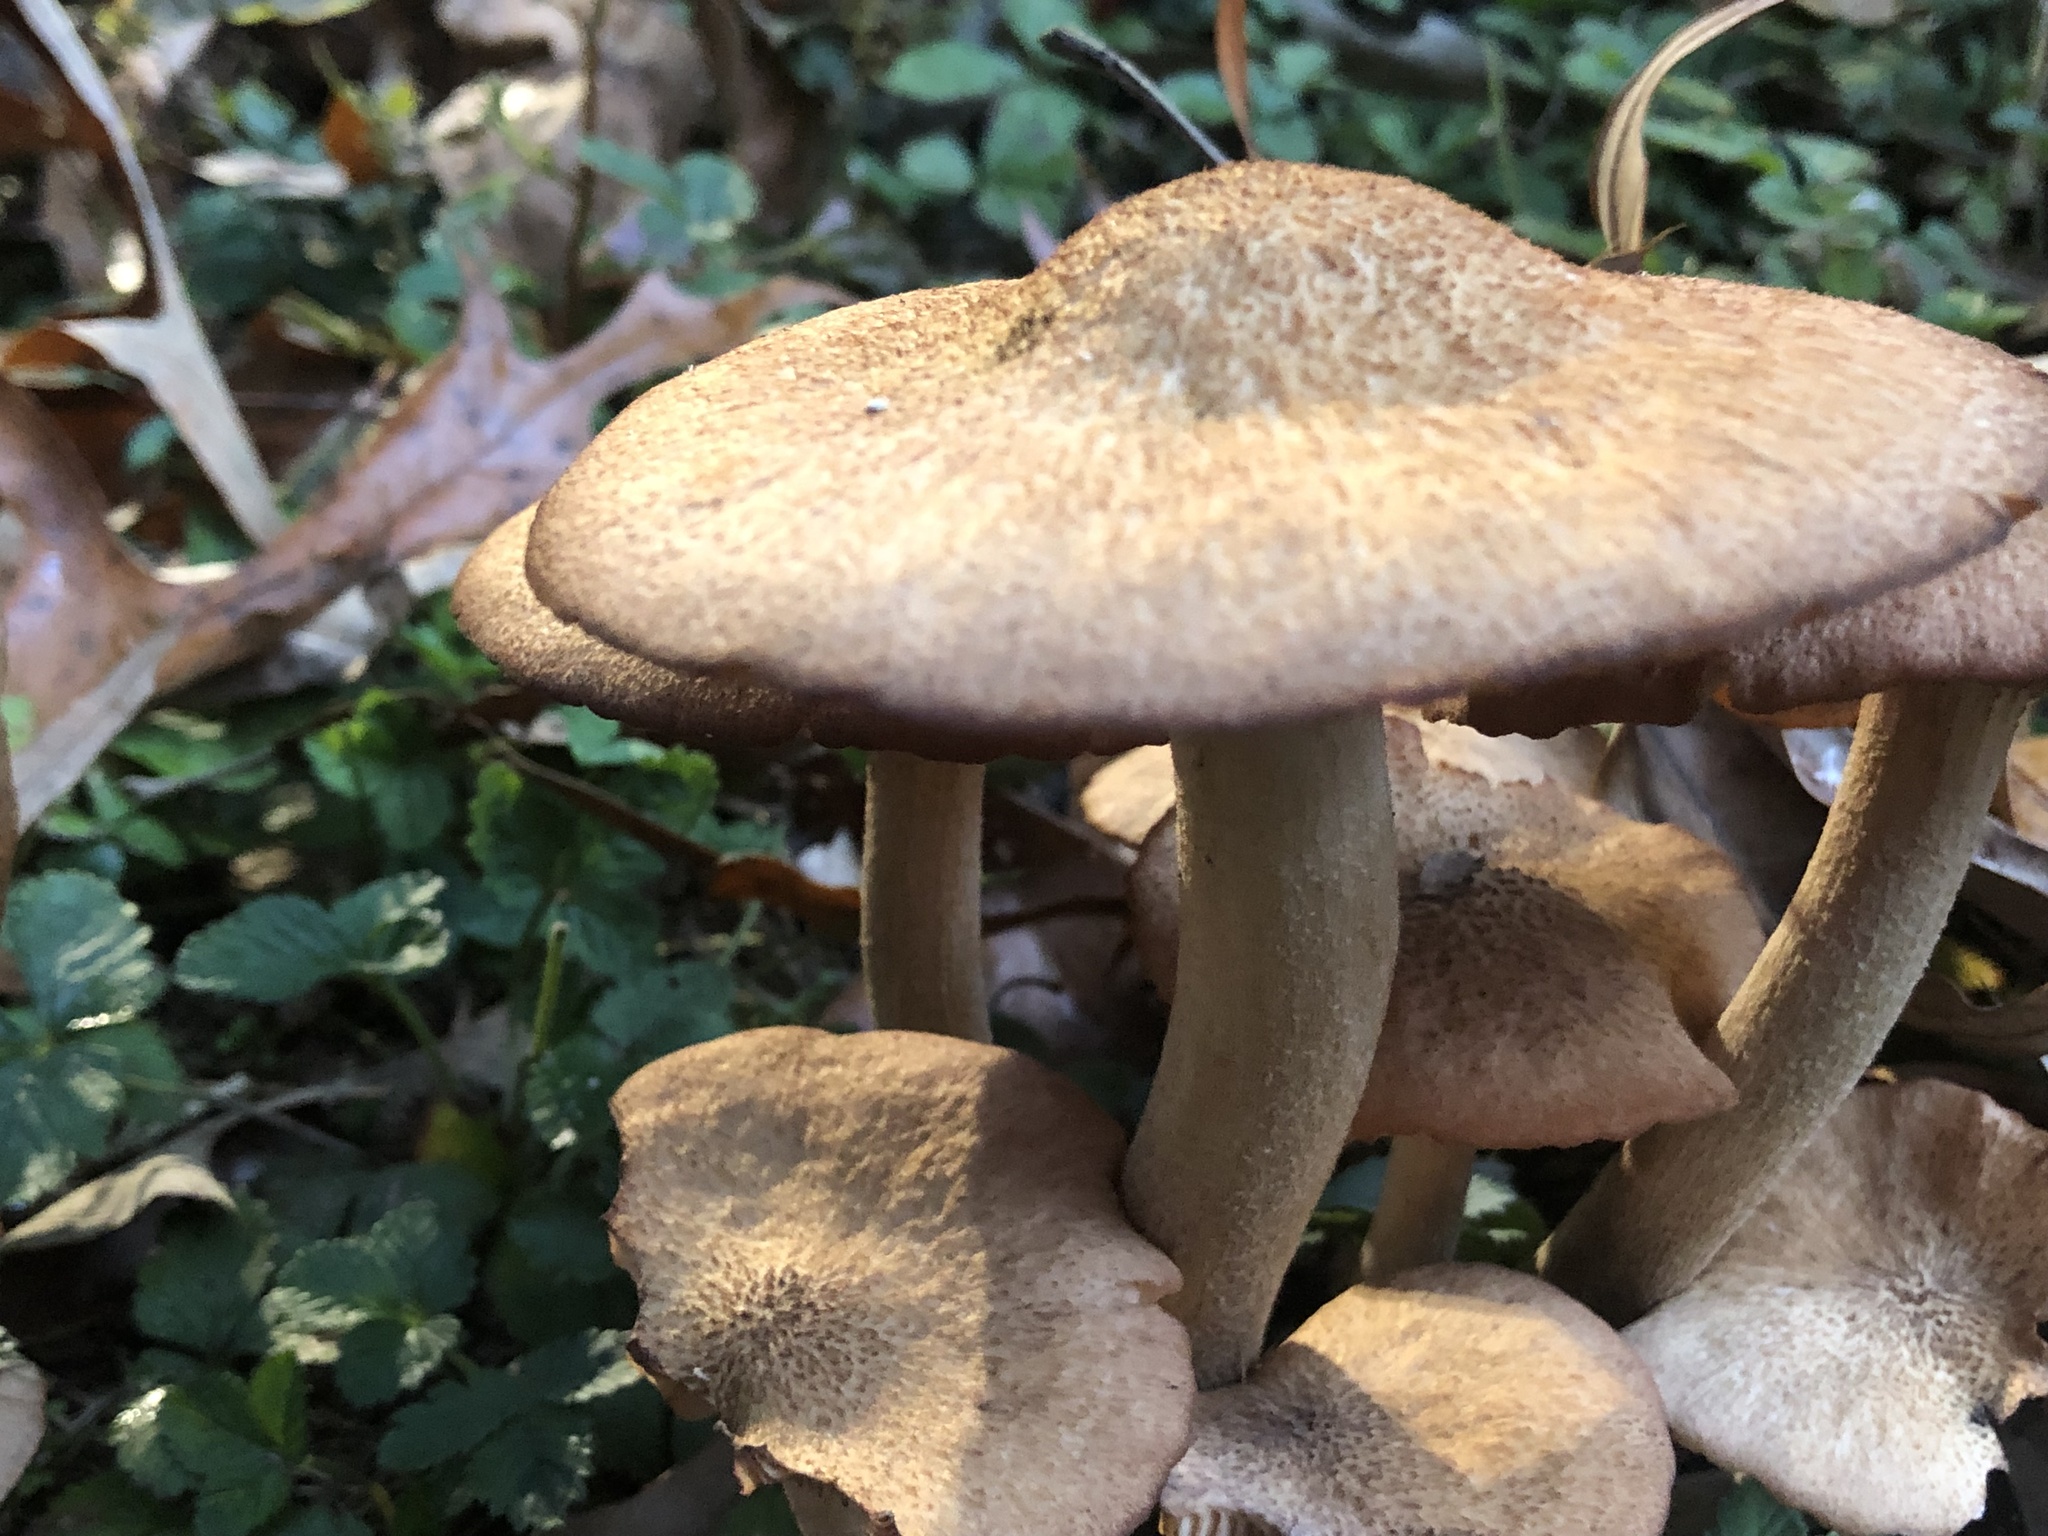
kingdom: Fungi
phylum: Basidiomycota
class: Agaricomycetes
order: Agaricales
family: Physalacriaceae
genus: Desarmillaria
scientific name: Desarmillaria caespitosa
